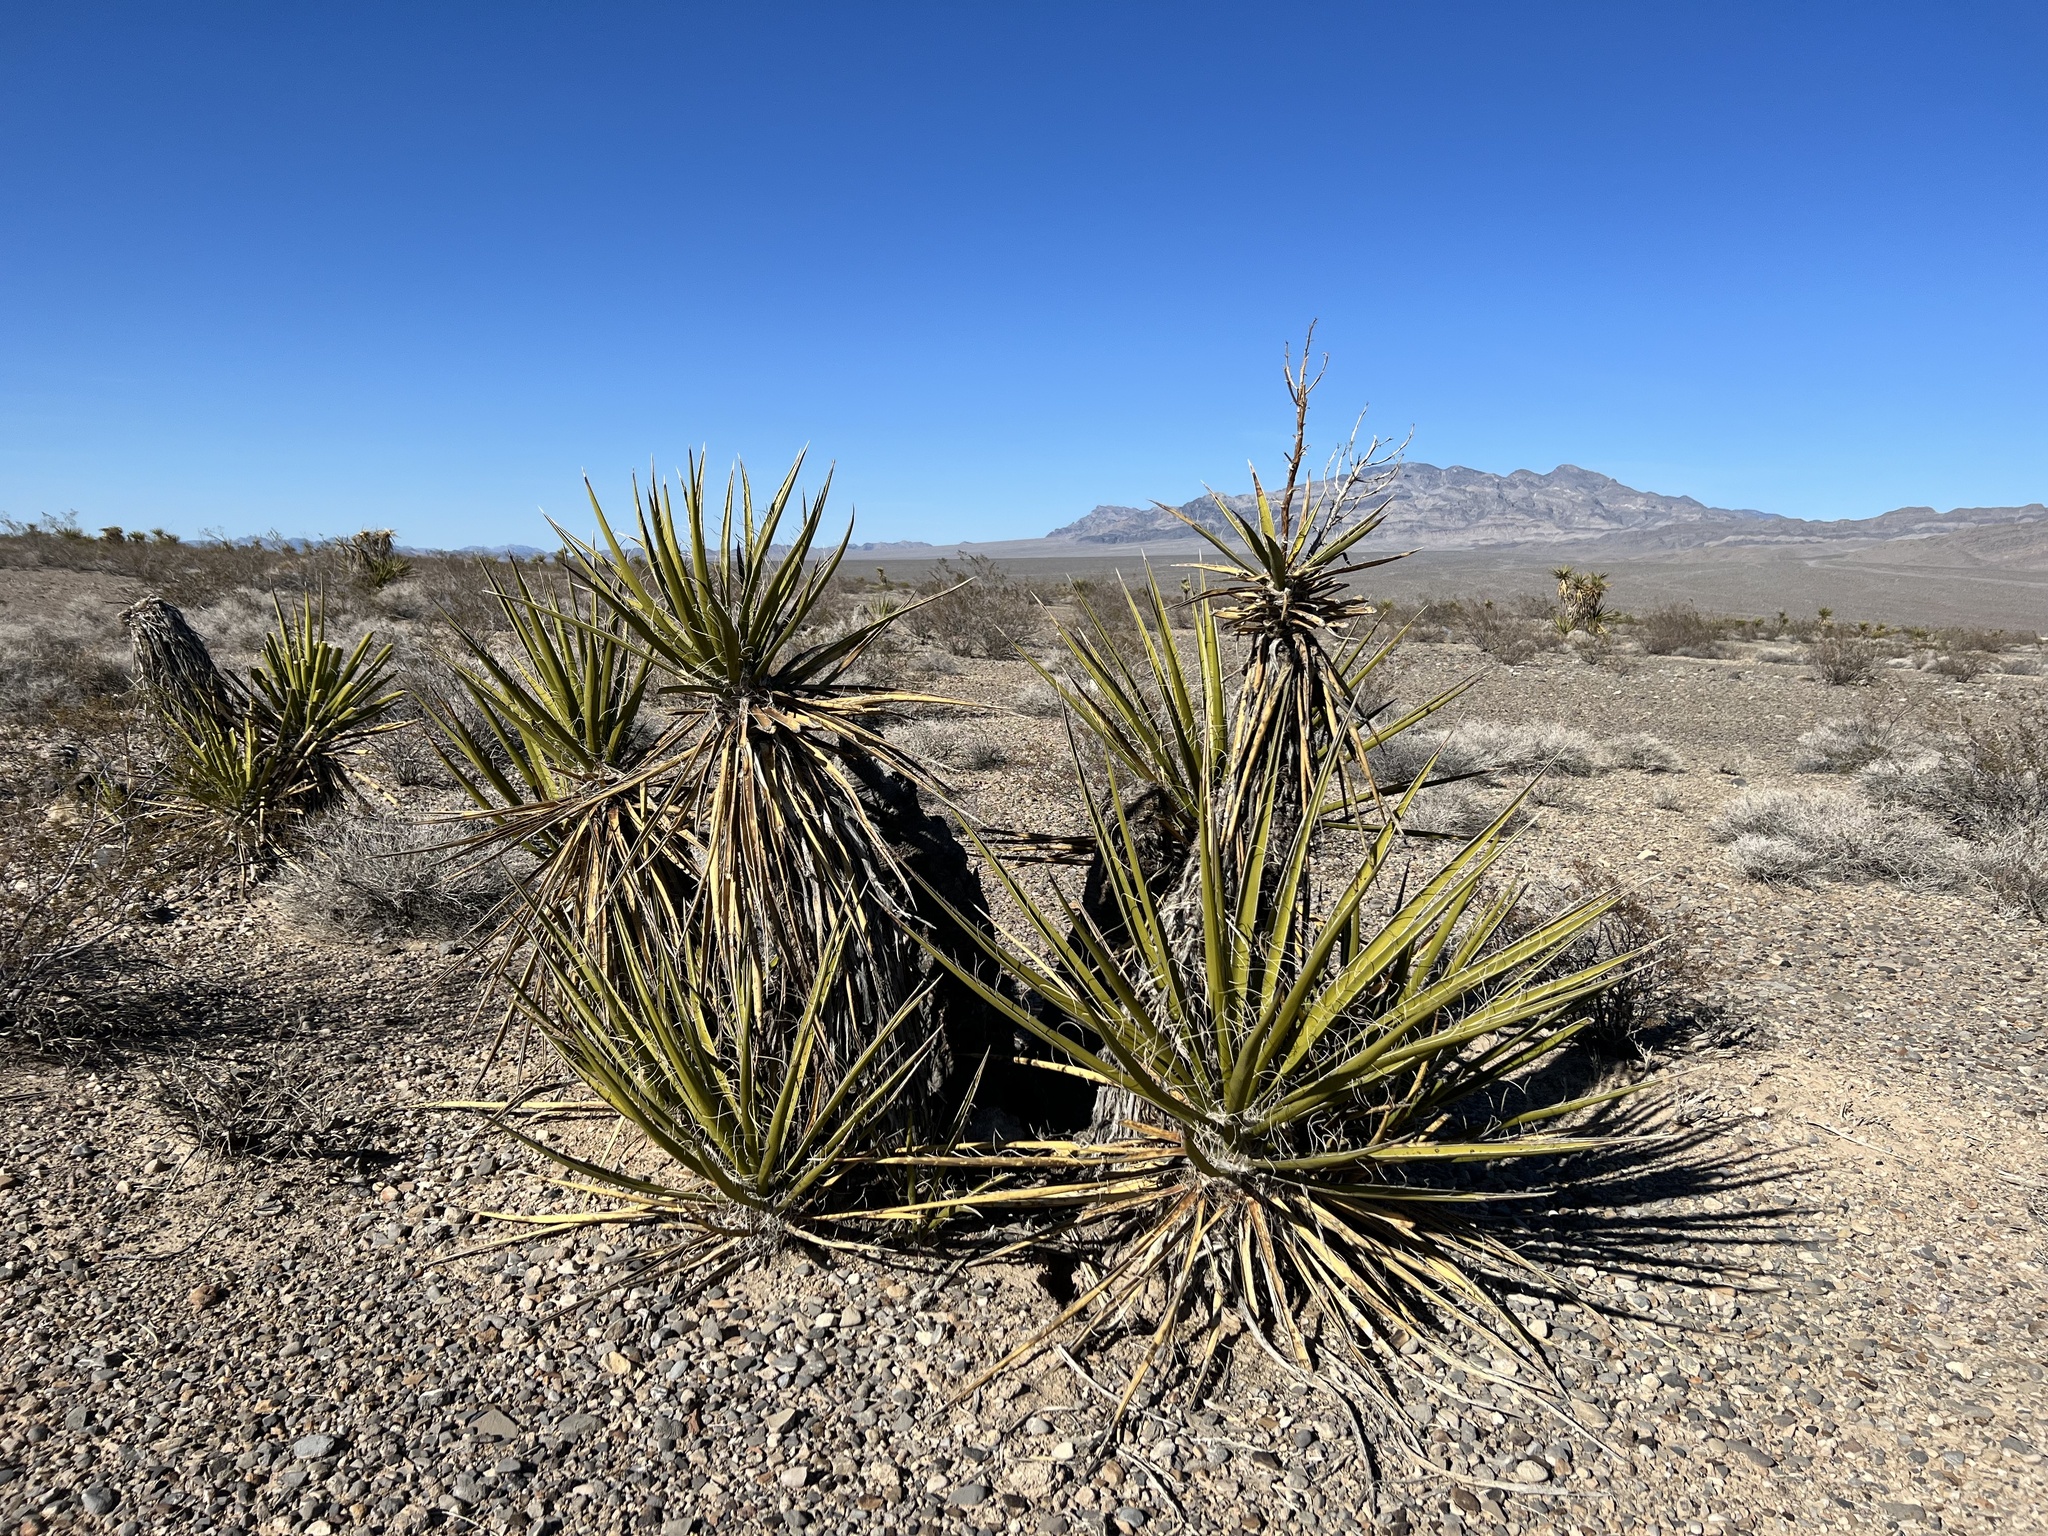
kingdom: Plantae
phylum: Tracheophyta
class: Liliopsida
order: Asparagales
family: Asparagaceae
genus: Yucca
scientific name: Yucca schidigera
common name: Mojave yucca
